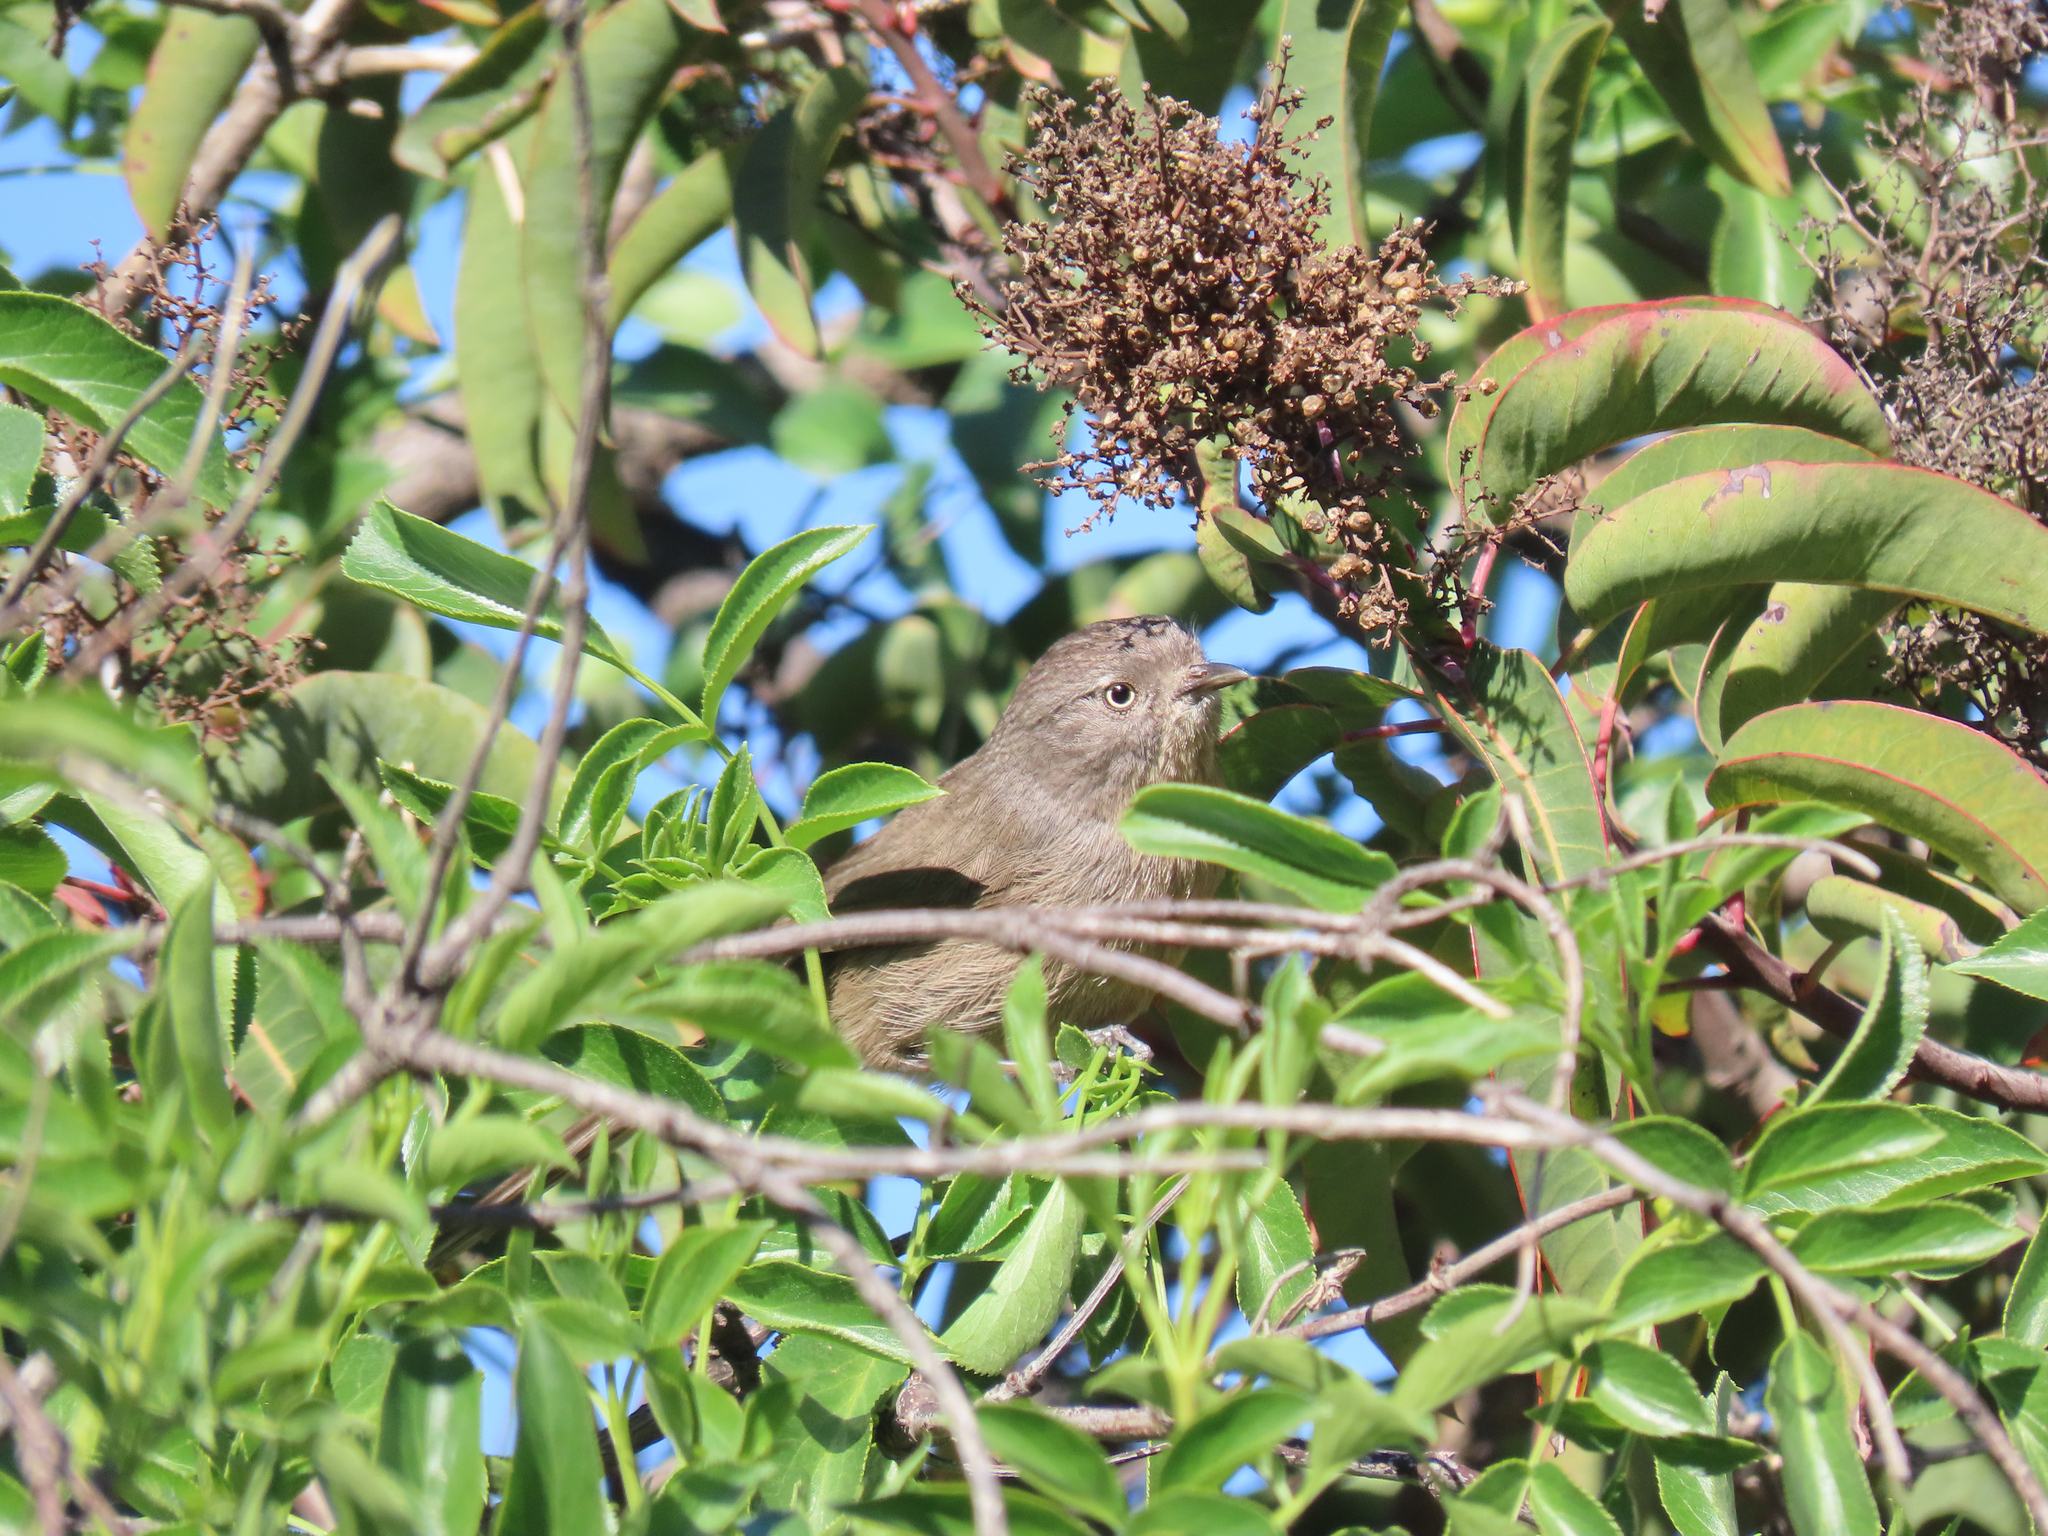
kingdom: Animalia
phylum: Chordata
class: Aves
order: Passeriformes
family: Sylviidae
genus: Chamaea
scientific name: Chamaea fasciata
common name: Wrentit
